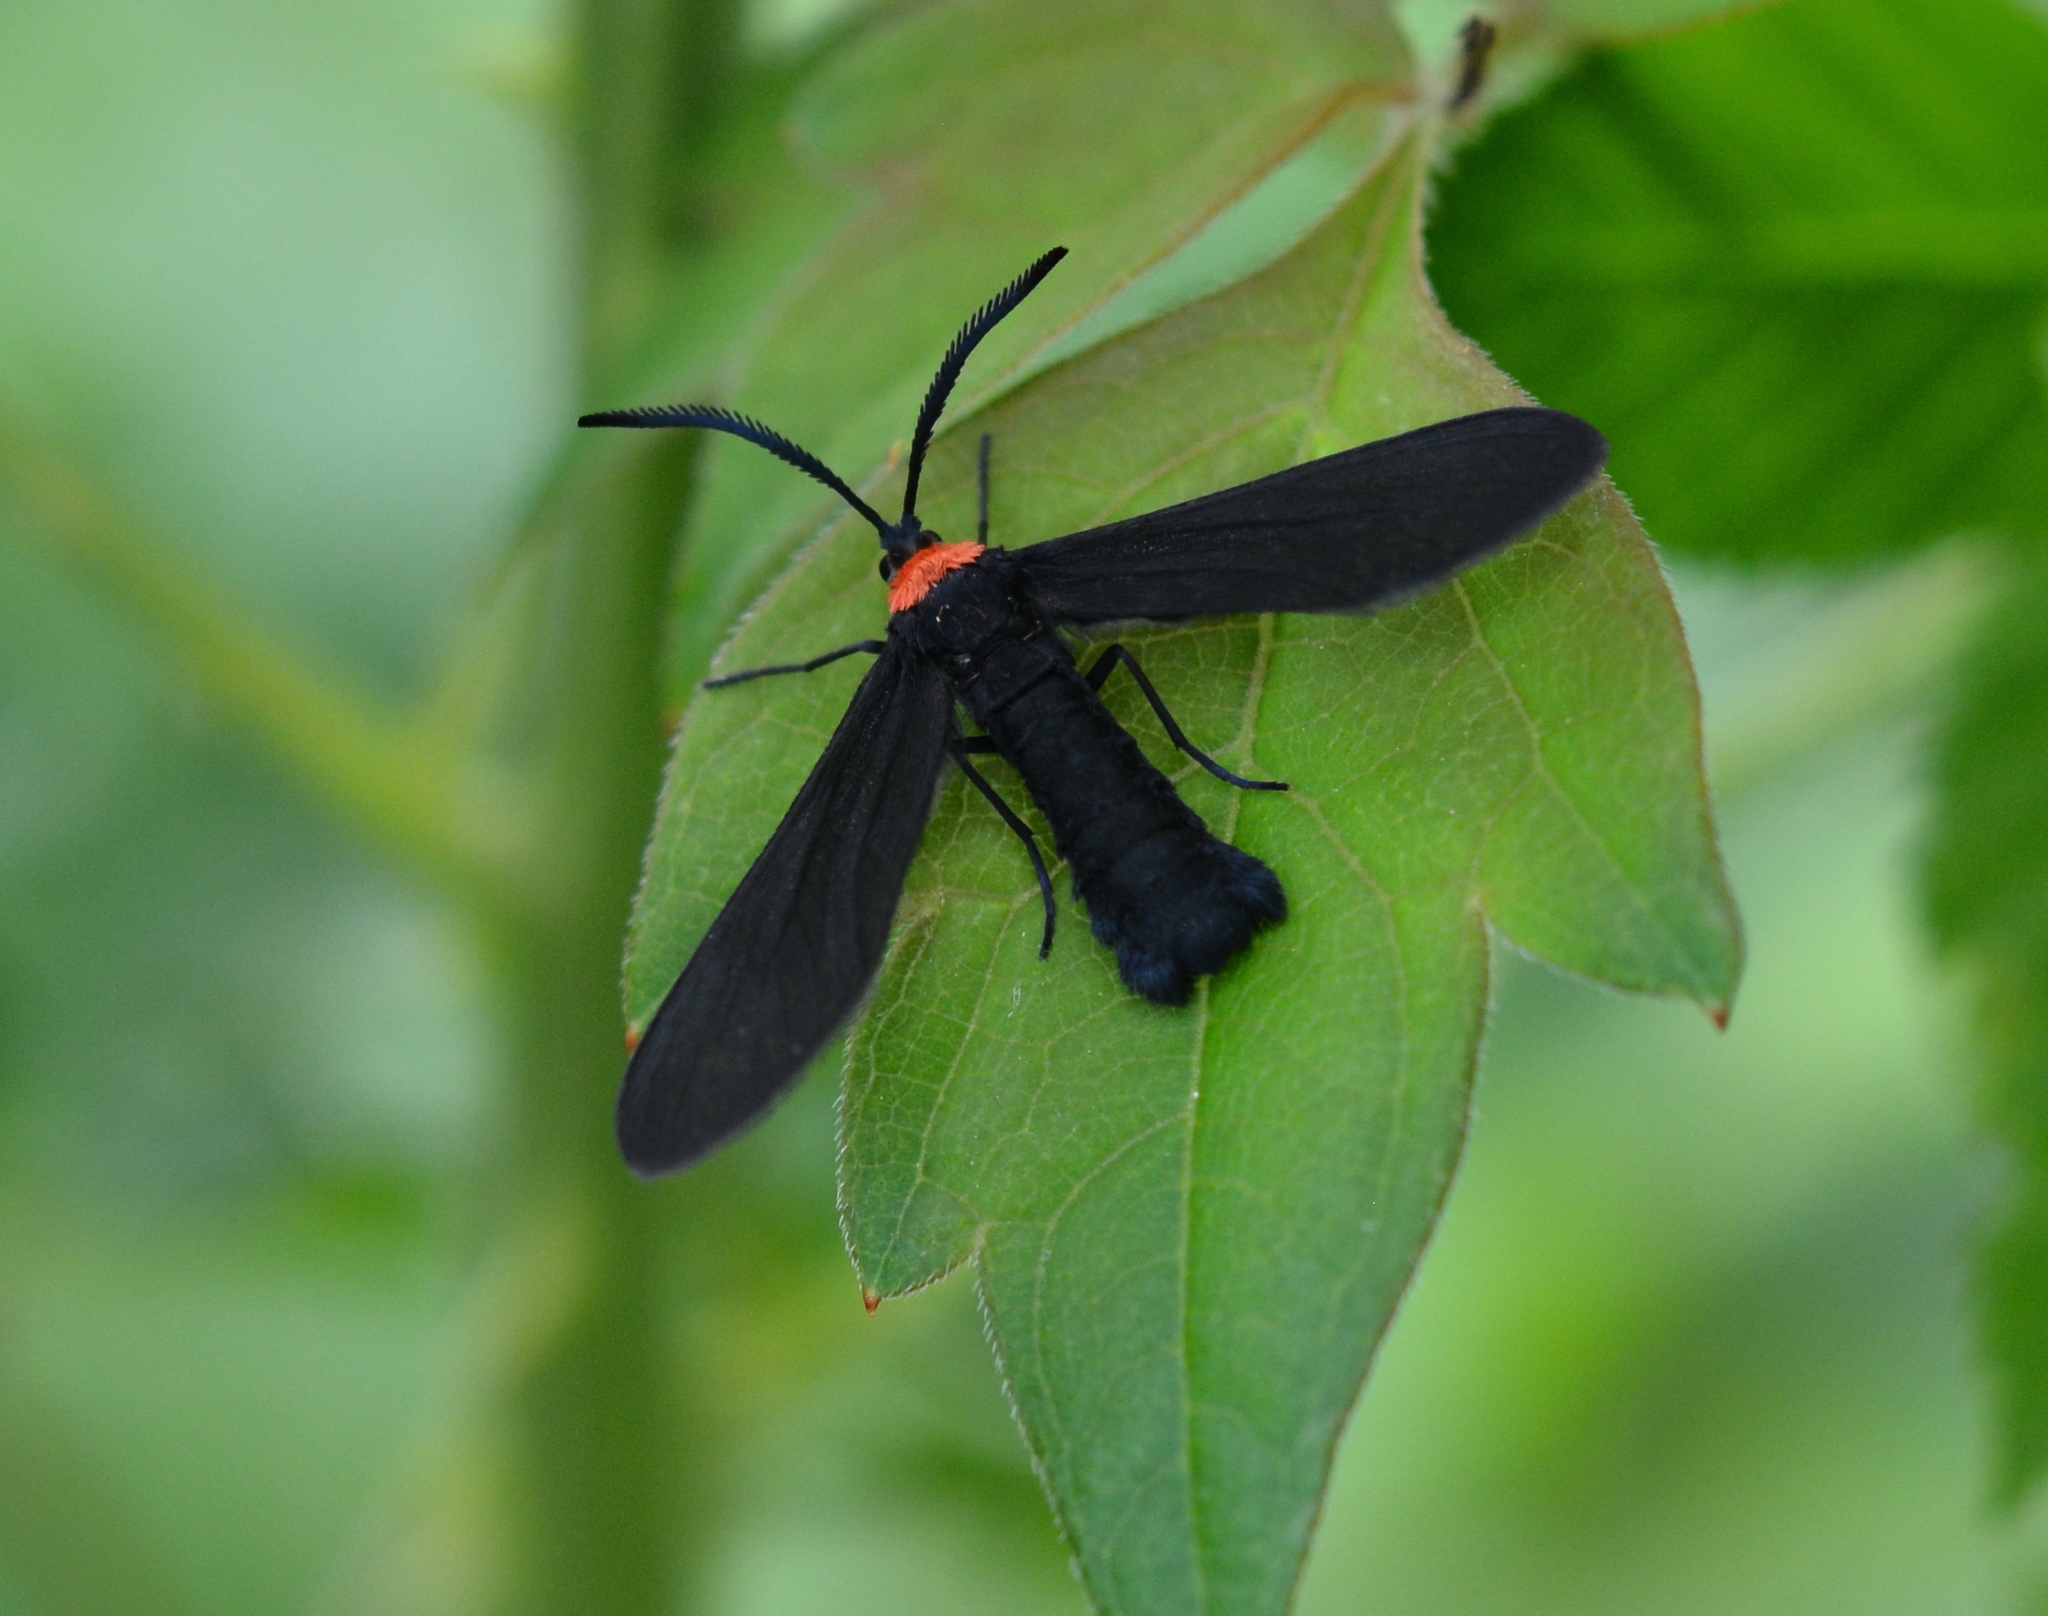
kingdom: Animalia
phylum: Arthropoda
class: Insecta
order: Lepidoptera
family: Zygaenidae
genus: Harrisina
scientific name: Harrisina americana
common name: Grapeleaf skeletonizer moth
